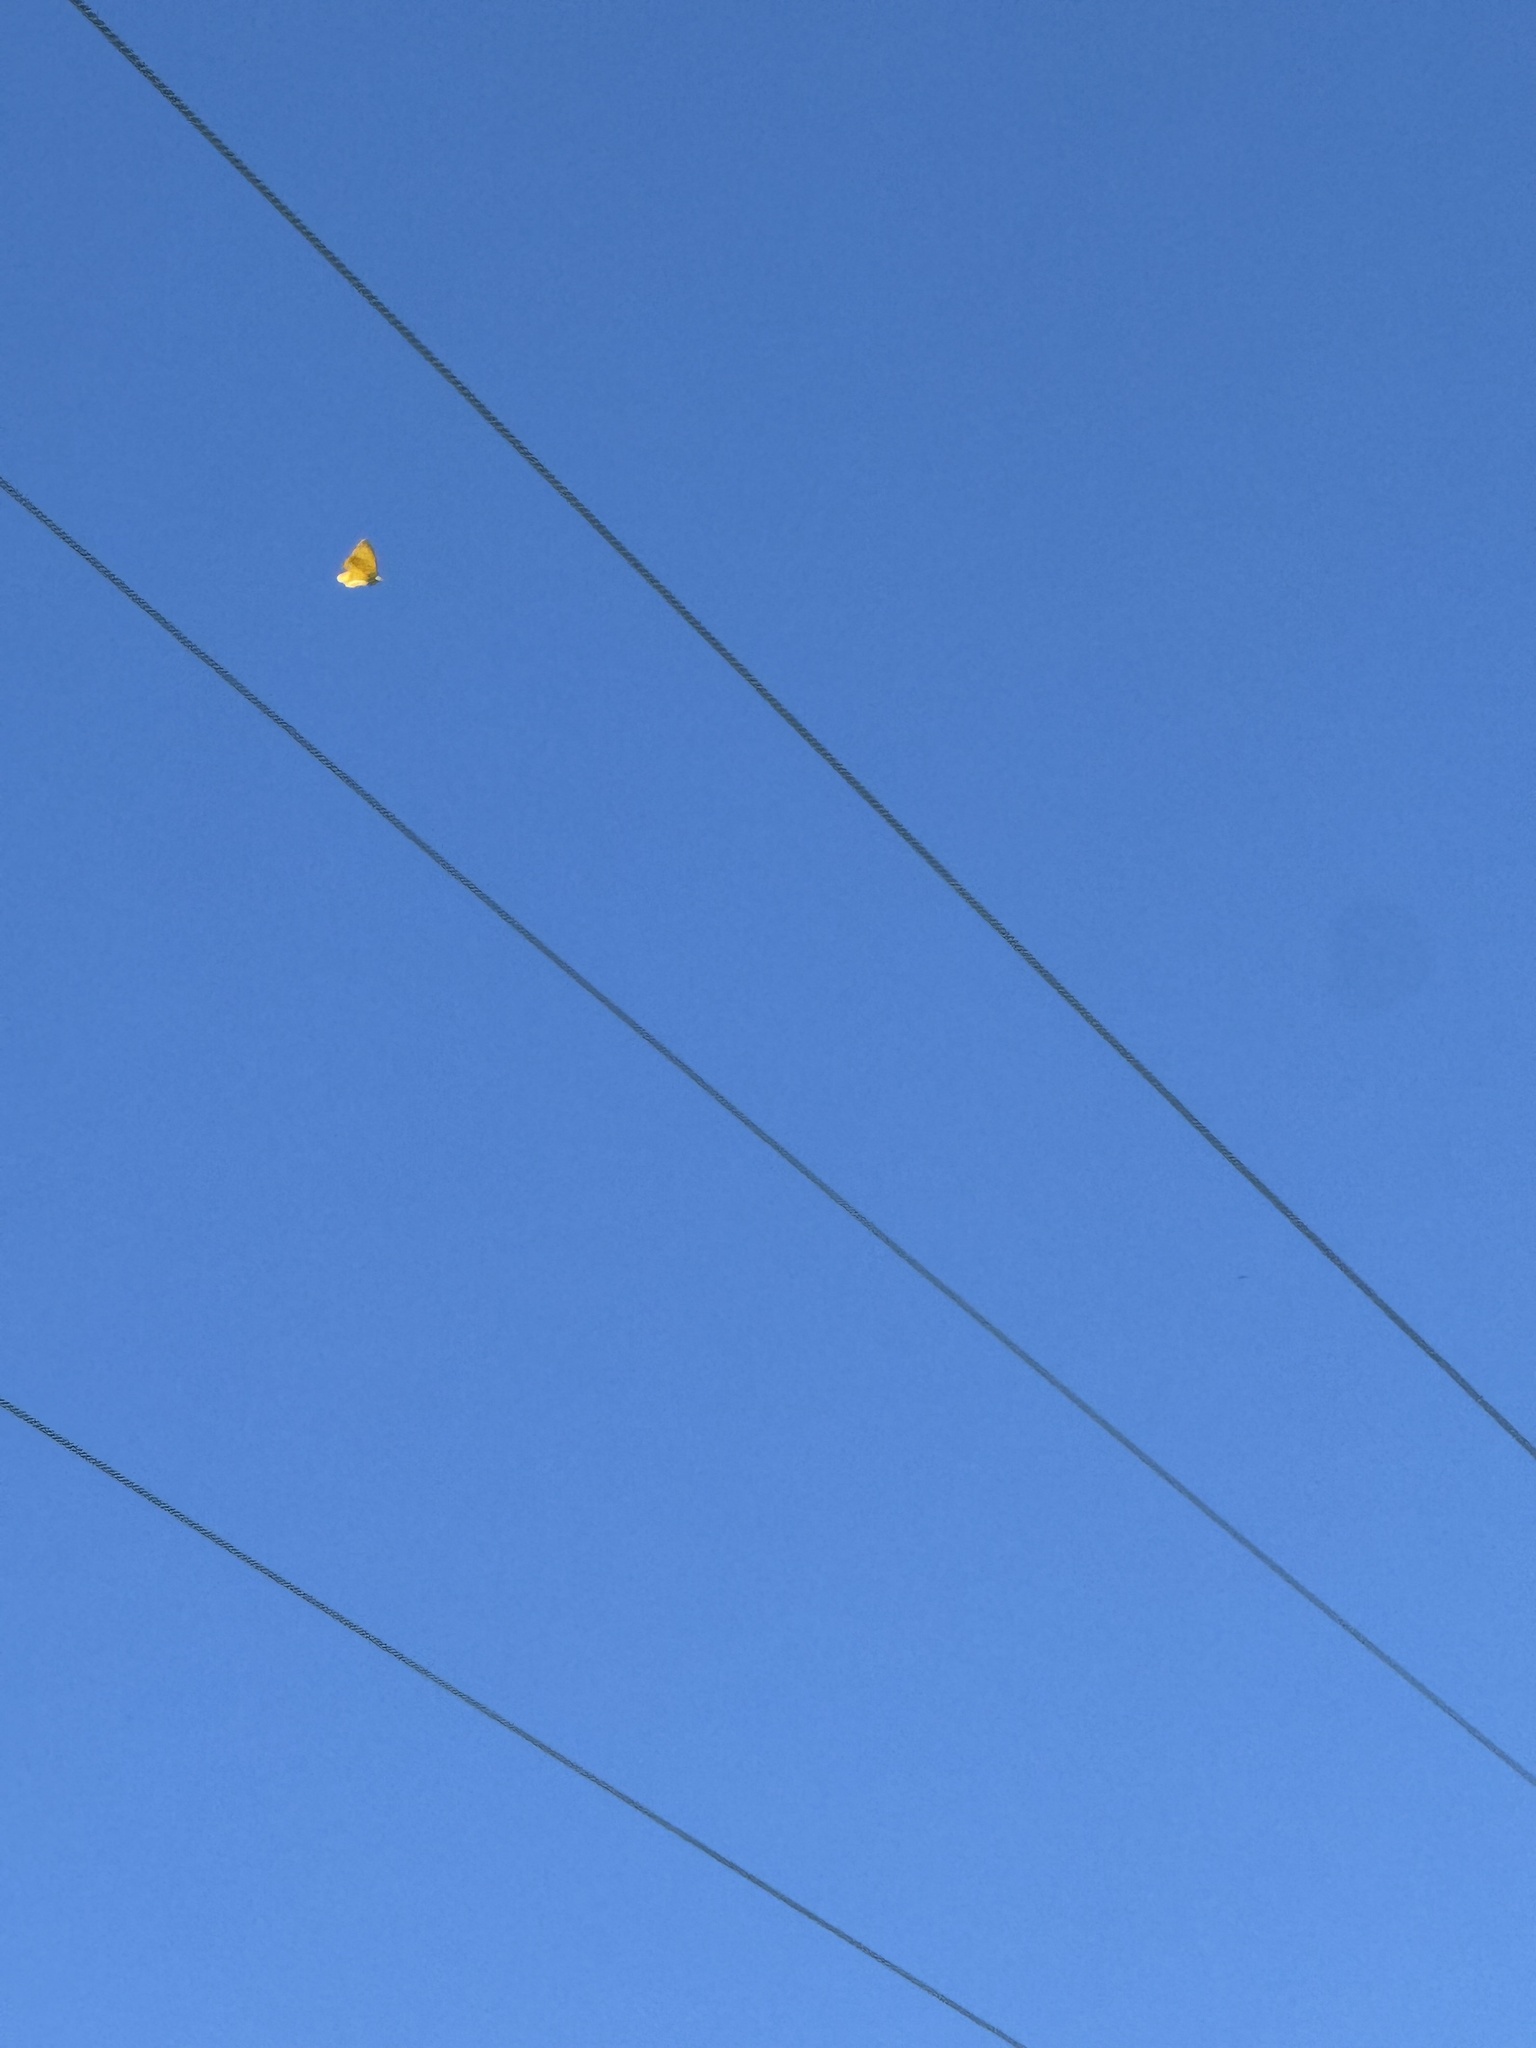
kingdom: Animalia
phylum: Arthropoda
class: Insecta
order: Lepidoptera
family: Pieridae
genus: Phoebis
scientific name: Phoebis agarithe
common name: Large orange sulphur
